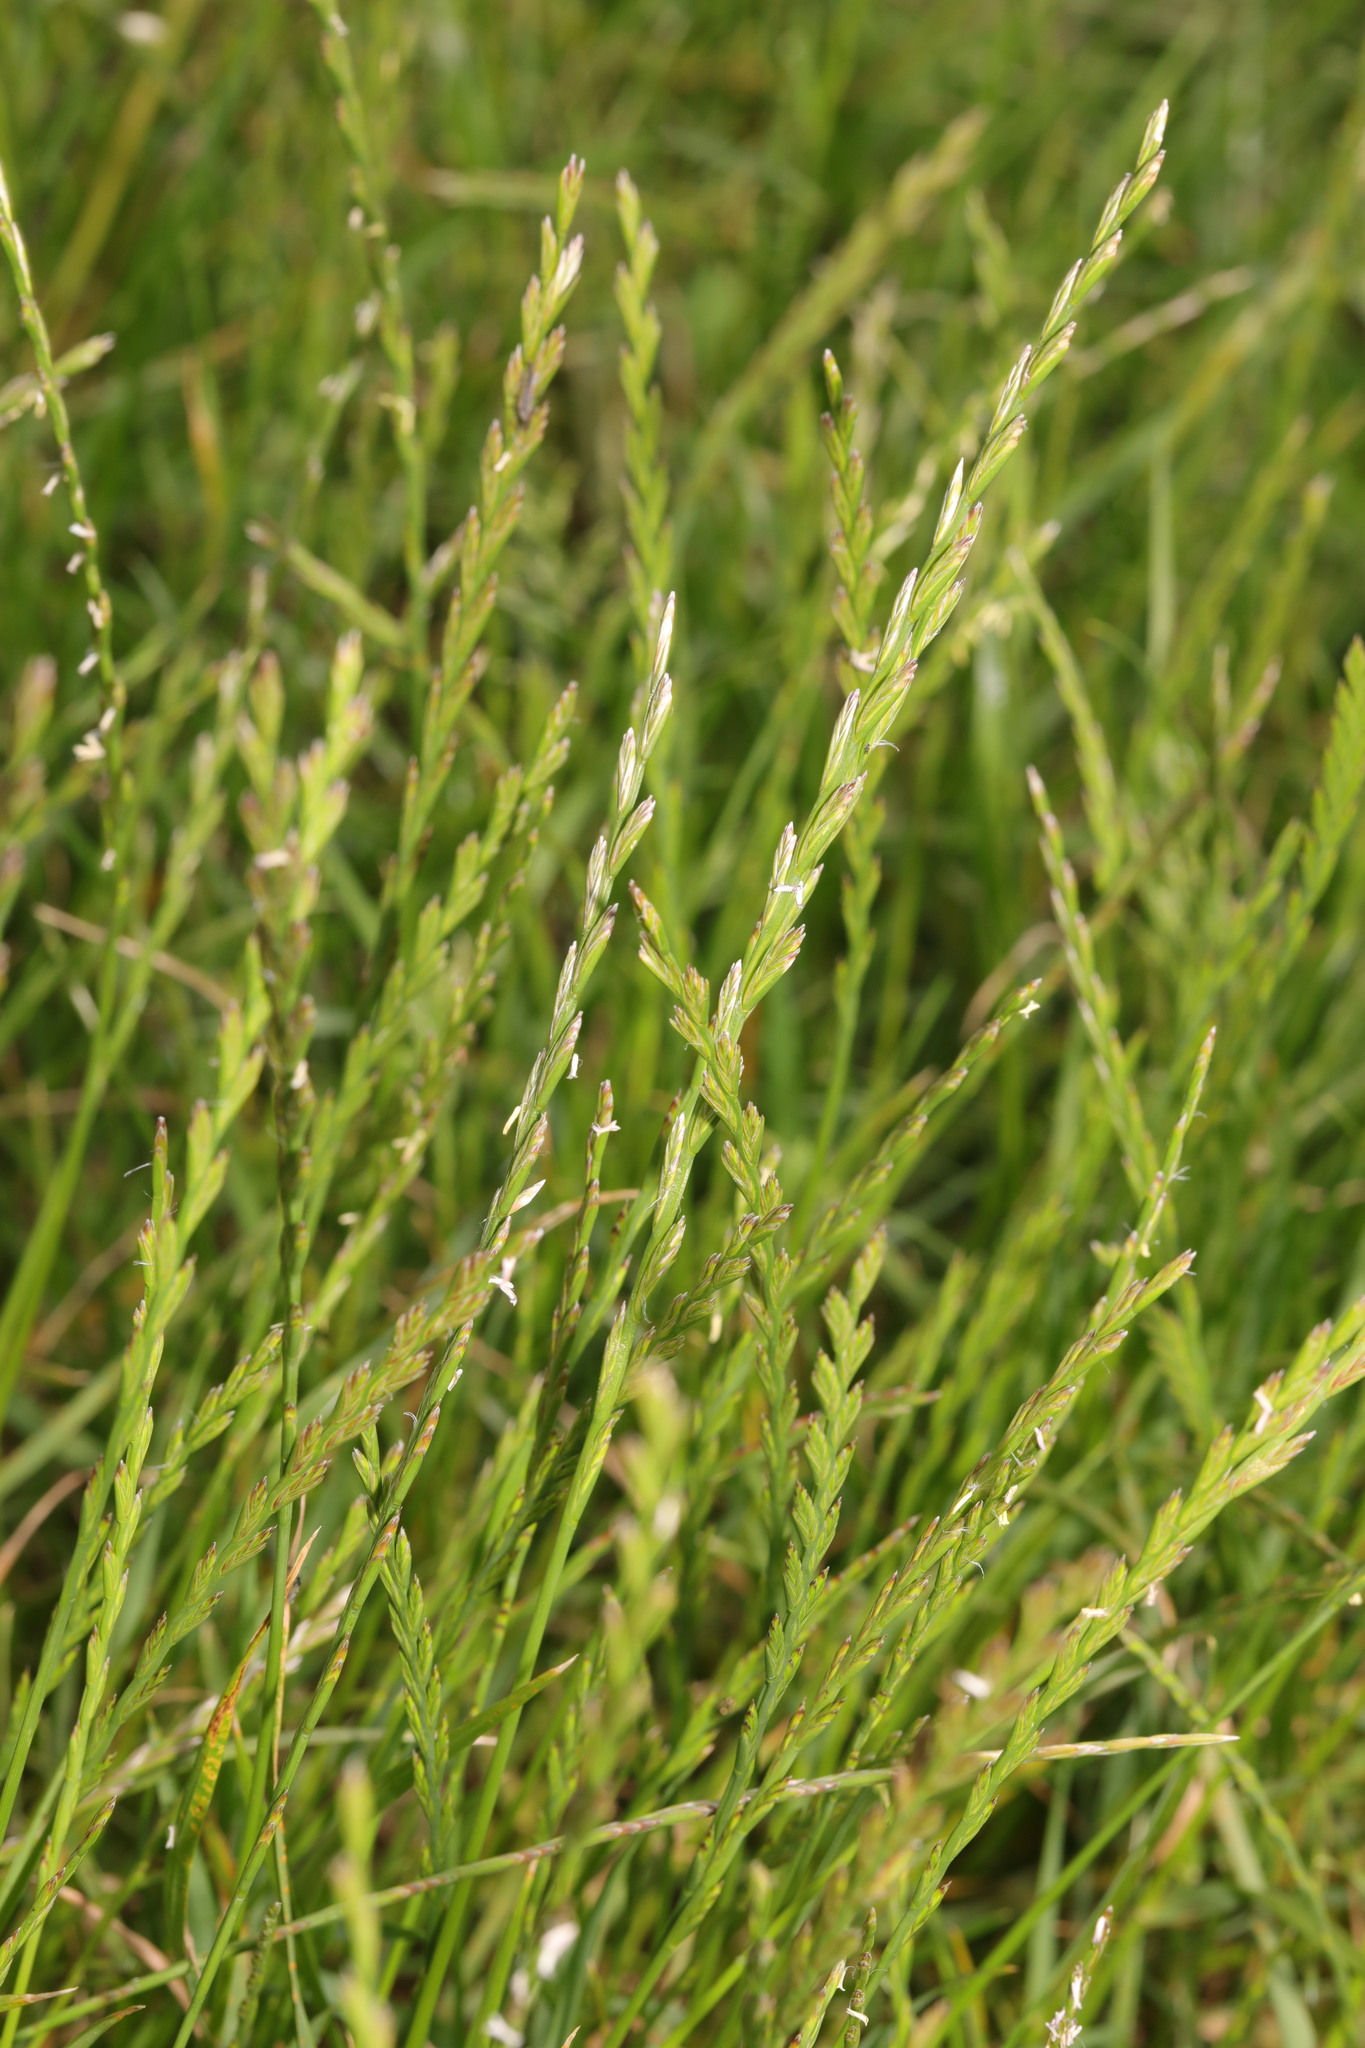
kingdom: Plantae
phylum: Tracheophyta
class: Liliopsida
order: Poales
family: Poaceae
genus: Lolium
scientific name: Lolium perenne
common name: Perennial ryegrass
